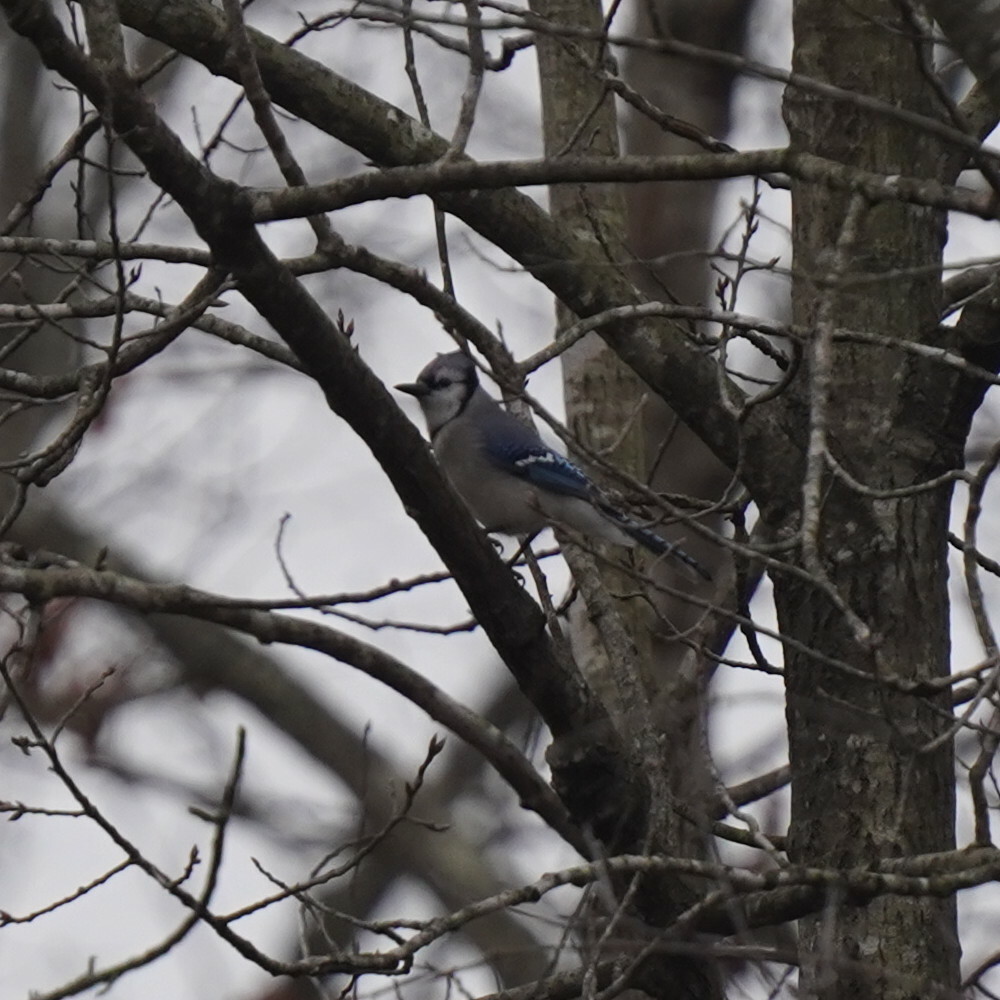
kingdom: Animalia
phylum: Chordata
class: Aves
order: Passeriformes
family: Corvidae
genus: Cyanocitta
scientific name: Cyanocitta cristata
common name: Blue jay
